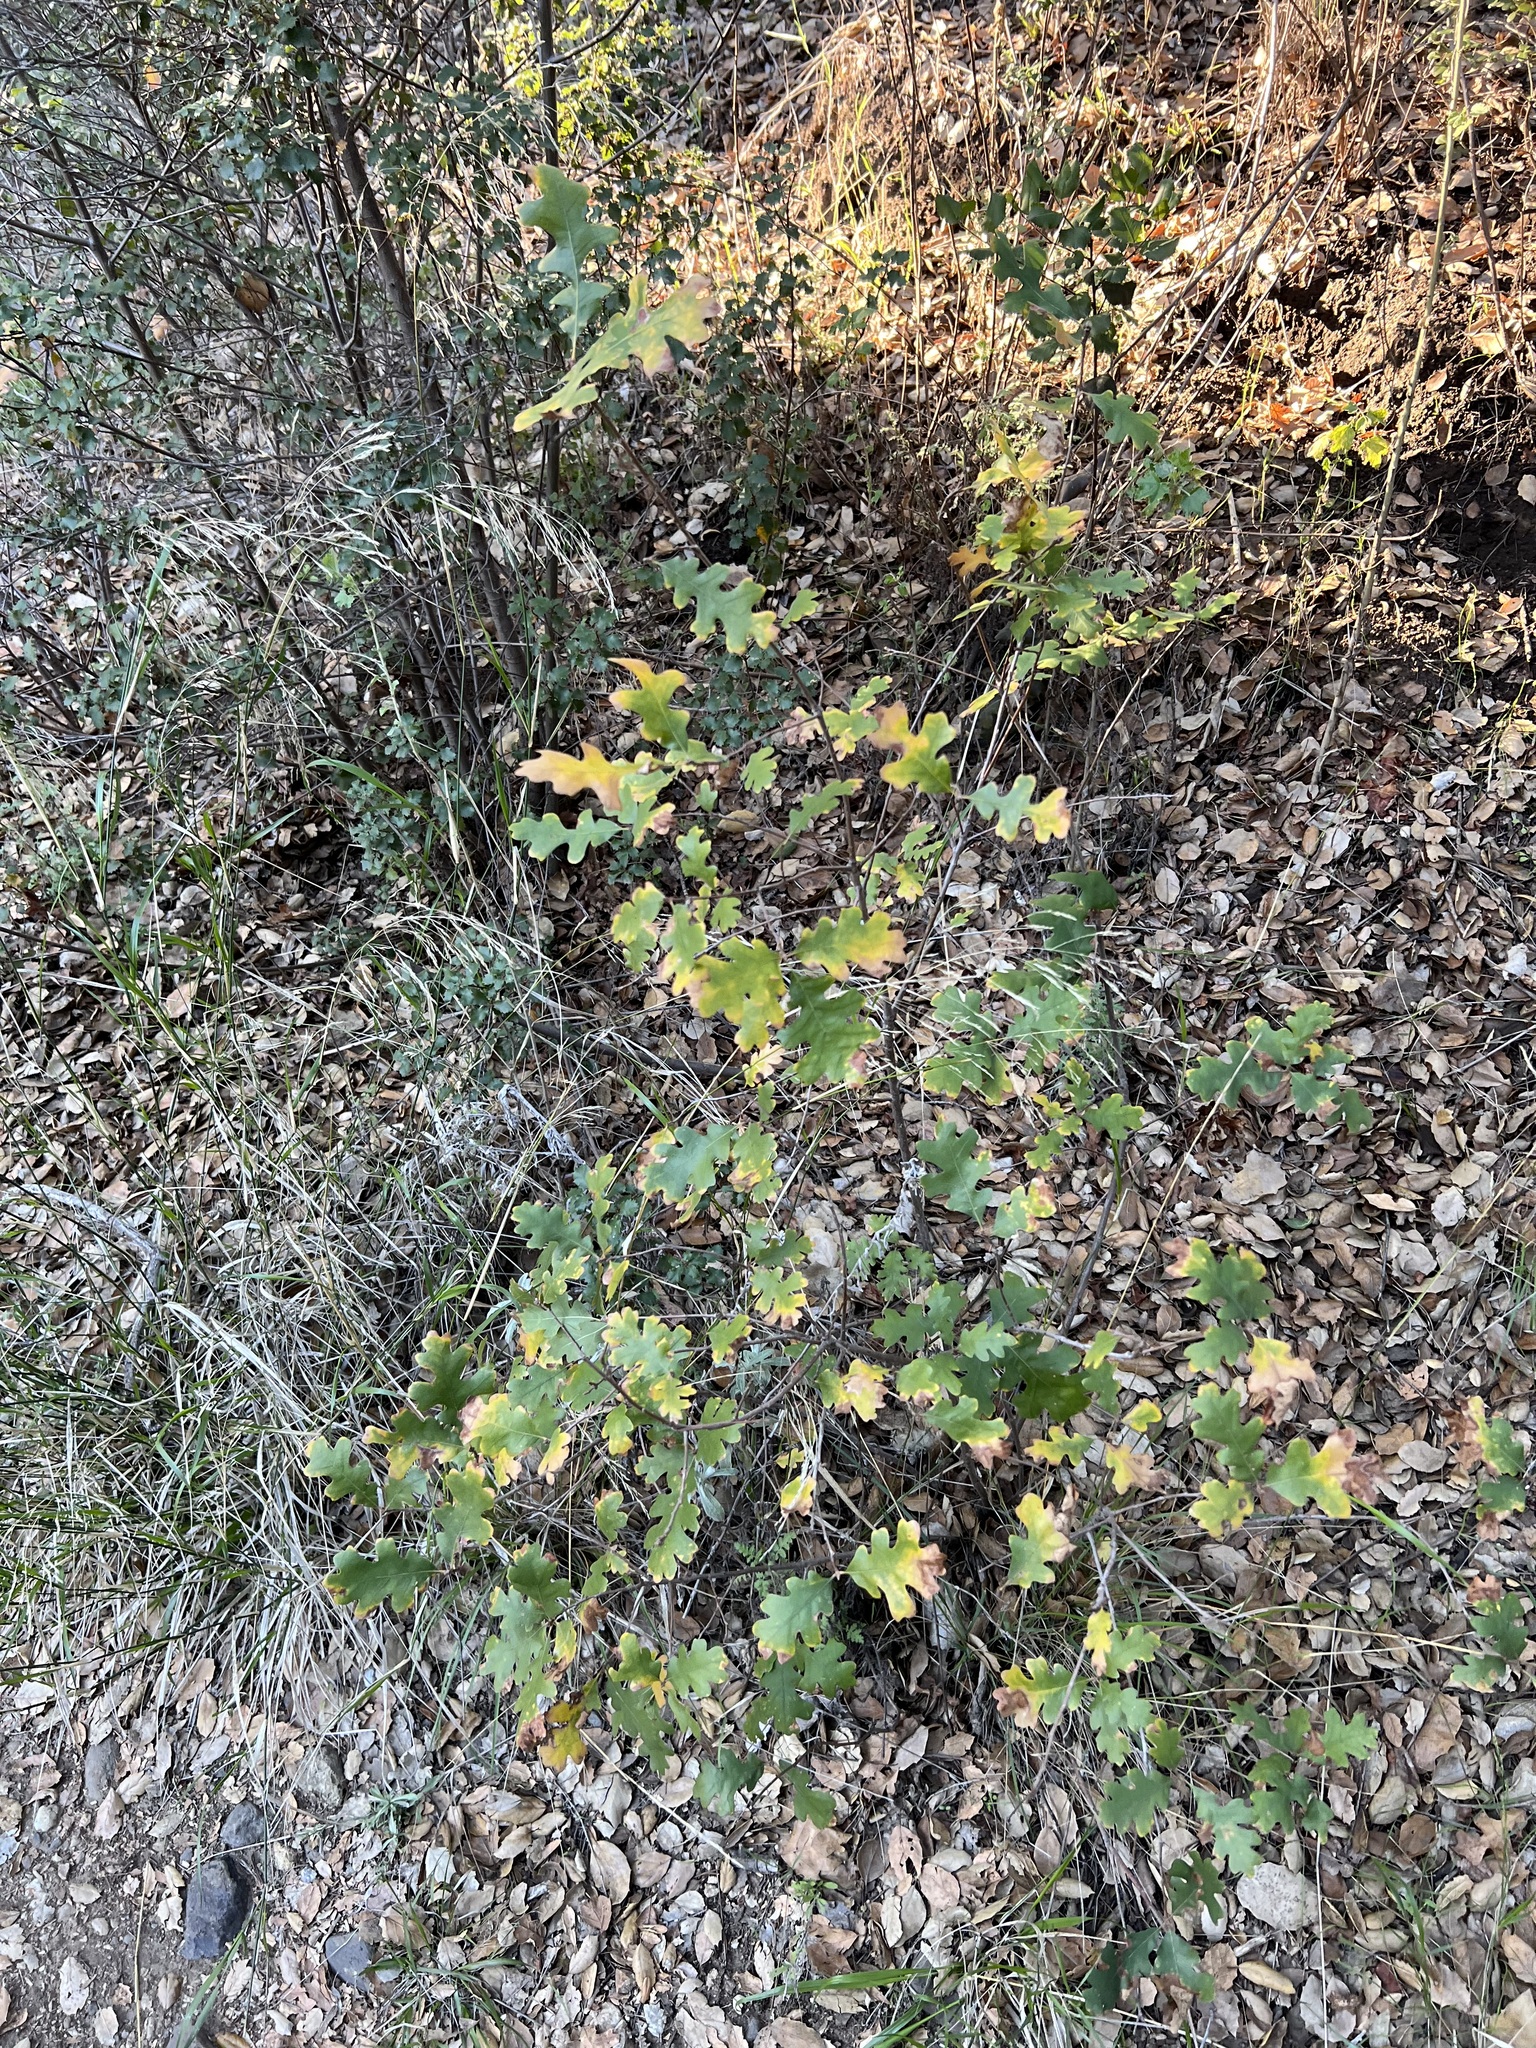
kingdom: Plantae
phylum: Tracheophyta
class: Magnoliopsida
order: Fagales
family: Fagaceae
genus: Quercus
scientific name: Quercus lobata
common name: Valley oak
